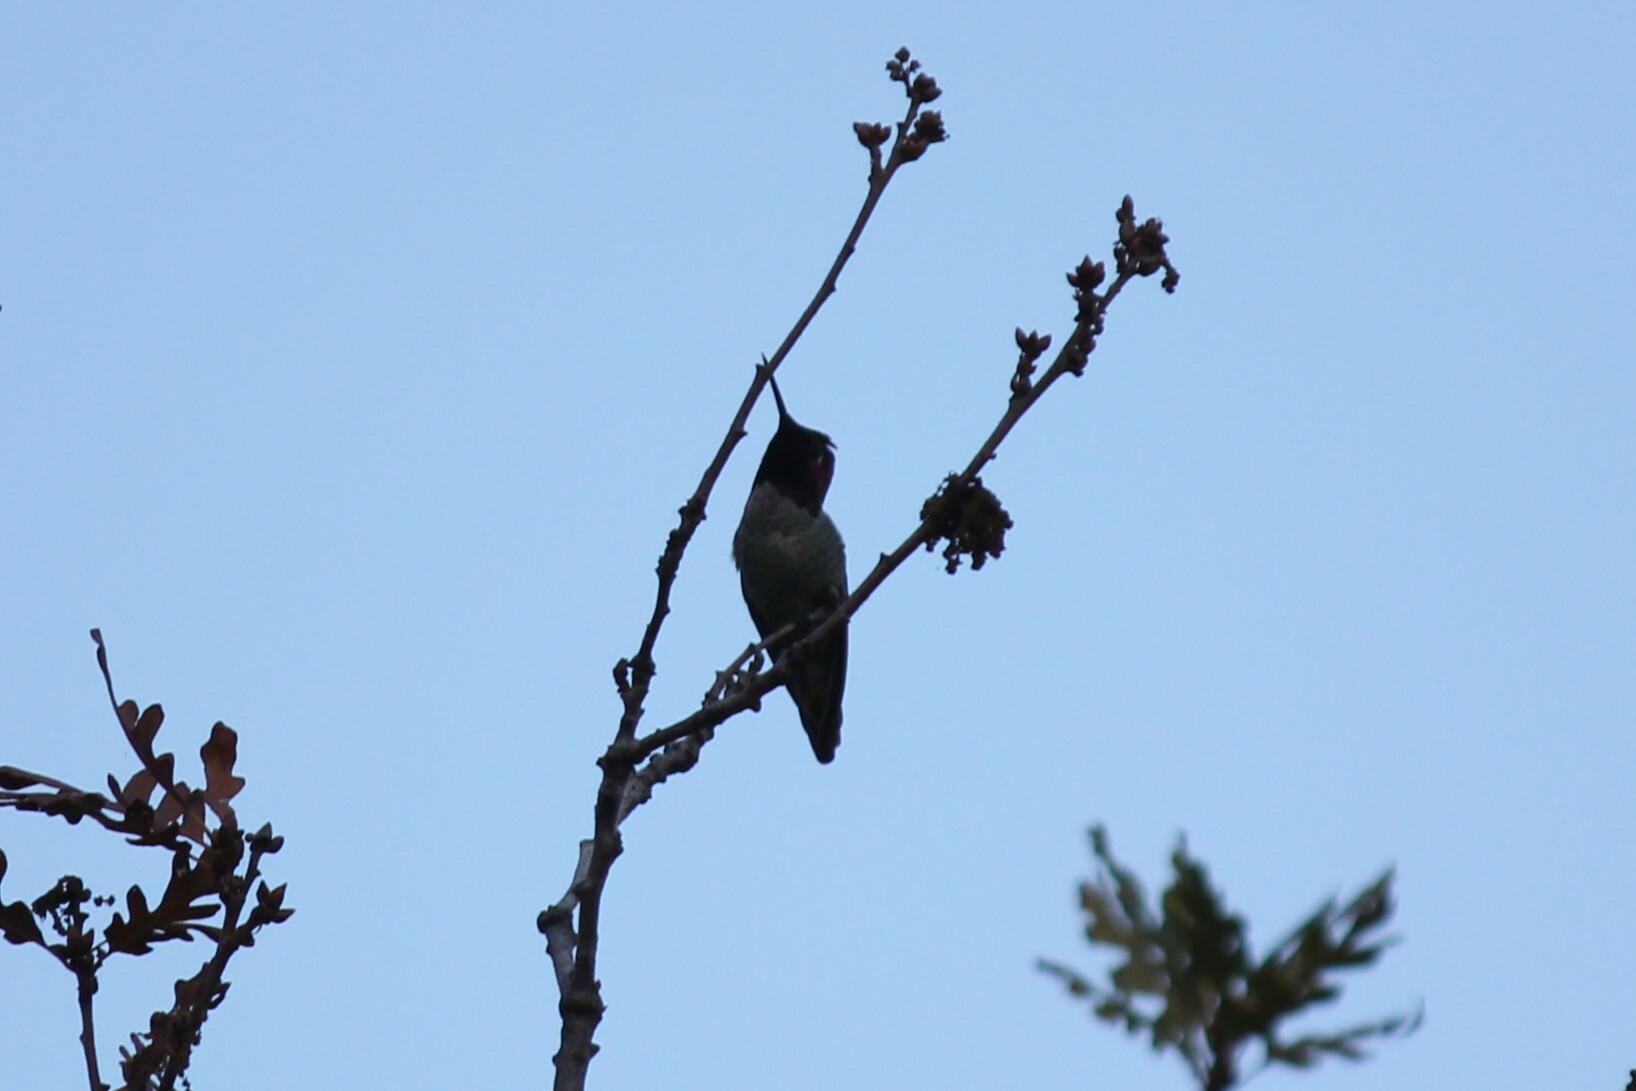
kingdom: Animalia
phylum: Chordata
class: Aves
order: Apodiformes
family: Trochilidae
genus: Calypte
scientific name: Calypte anna
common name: Anna's hummingbird
